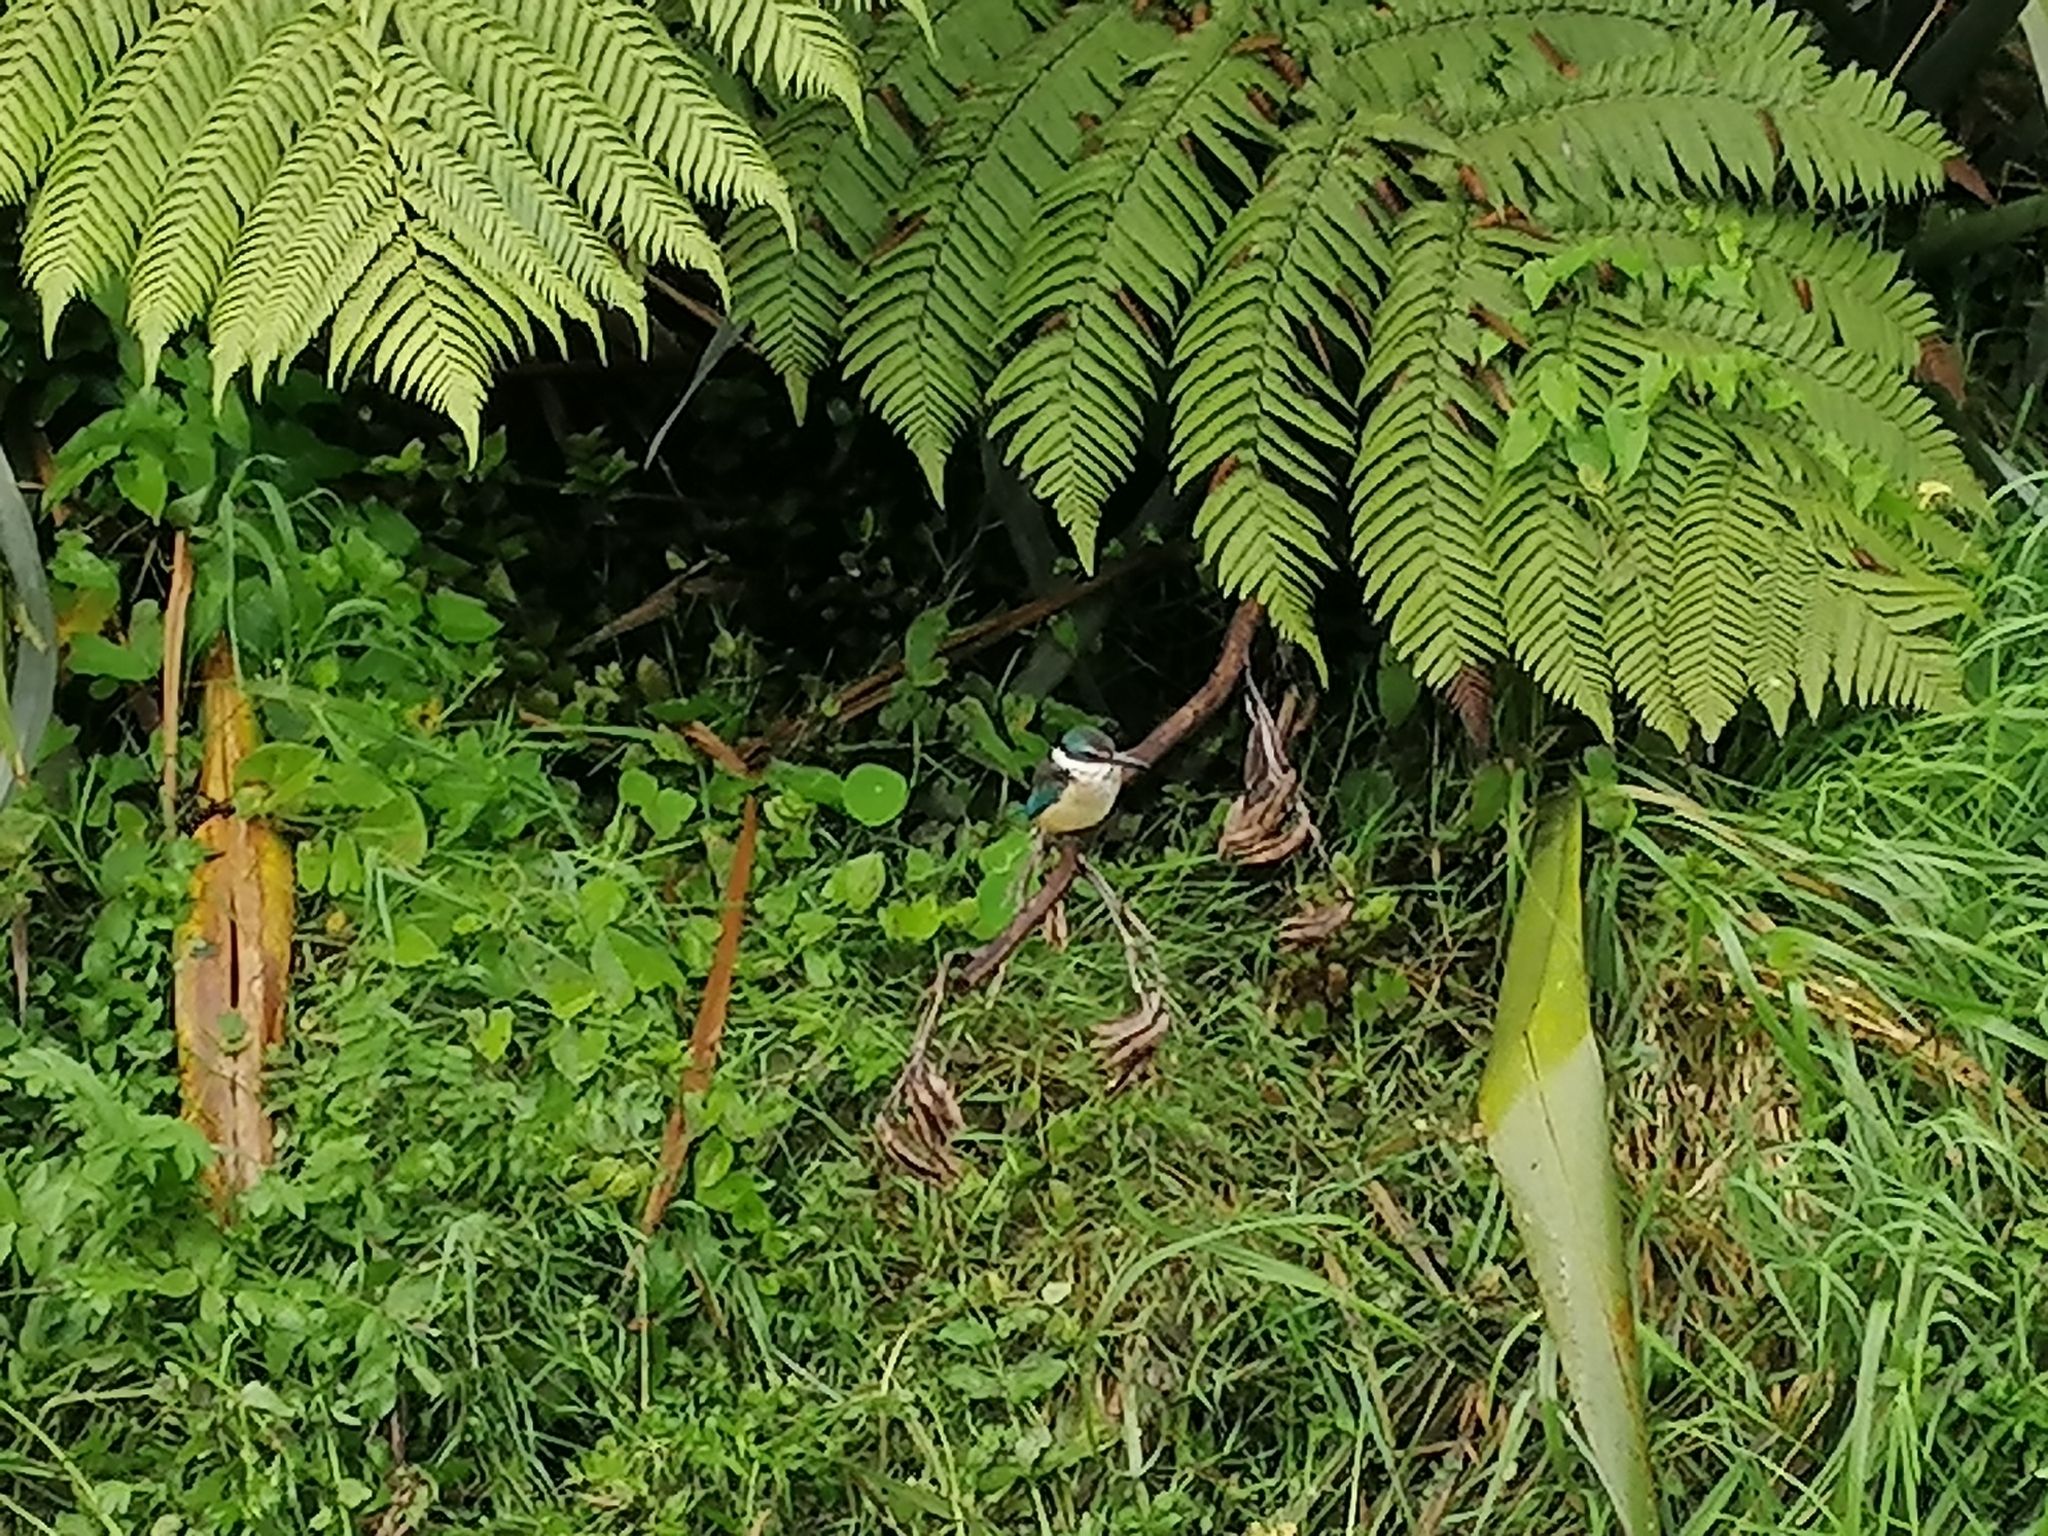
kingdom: Animalia
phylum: Chordata
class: Aves
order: Coraciiformes
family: Alcedinidae
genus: Todiramphus
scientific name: Todiramphus sanctus
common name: Sacred kingfisher
